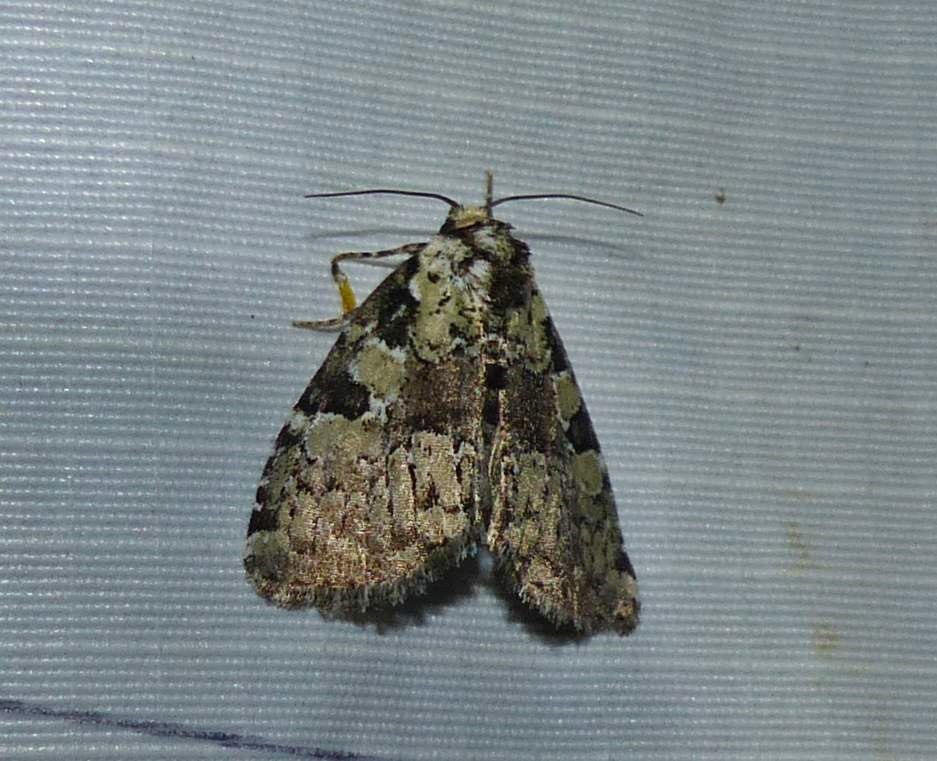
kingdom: Animalia
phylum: Arthropoda
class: Insecta
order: Lepidoptera
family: Noctuidae
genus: Leuconycta
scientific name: Leuconycta lepidula
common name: Marbled-green leuconycta moth
